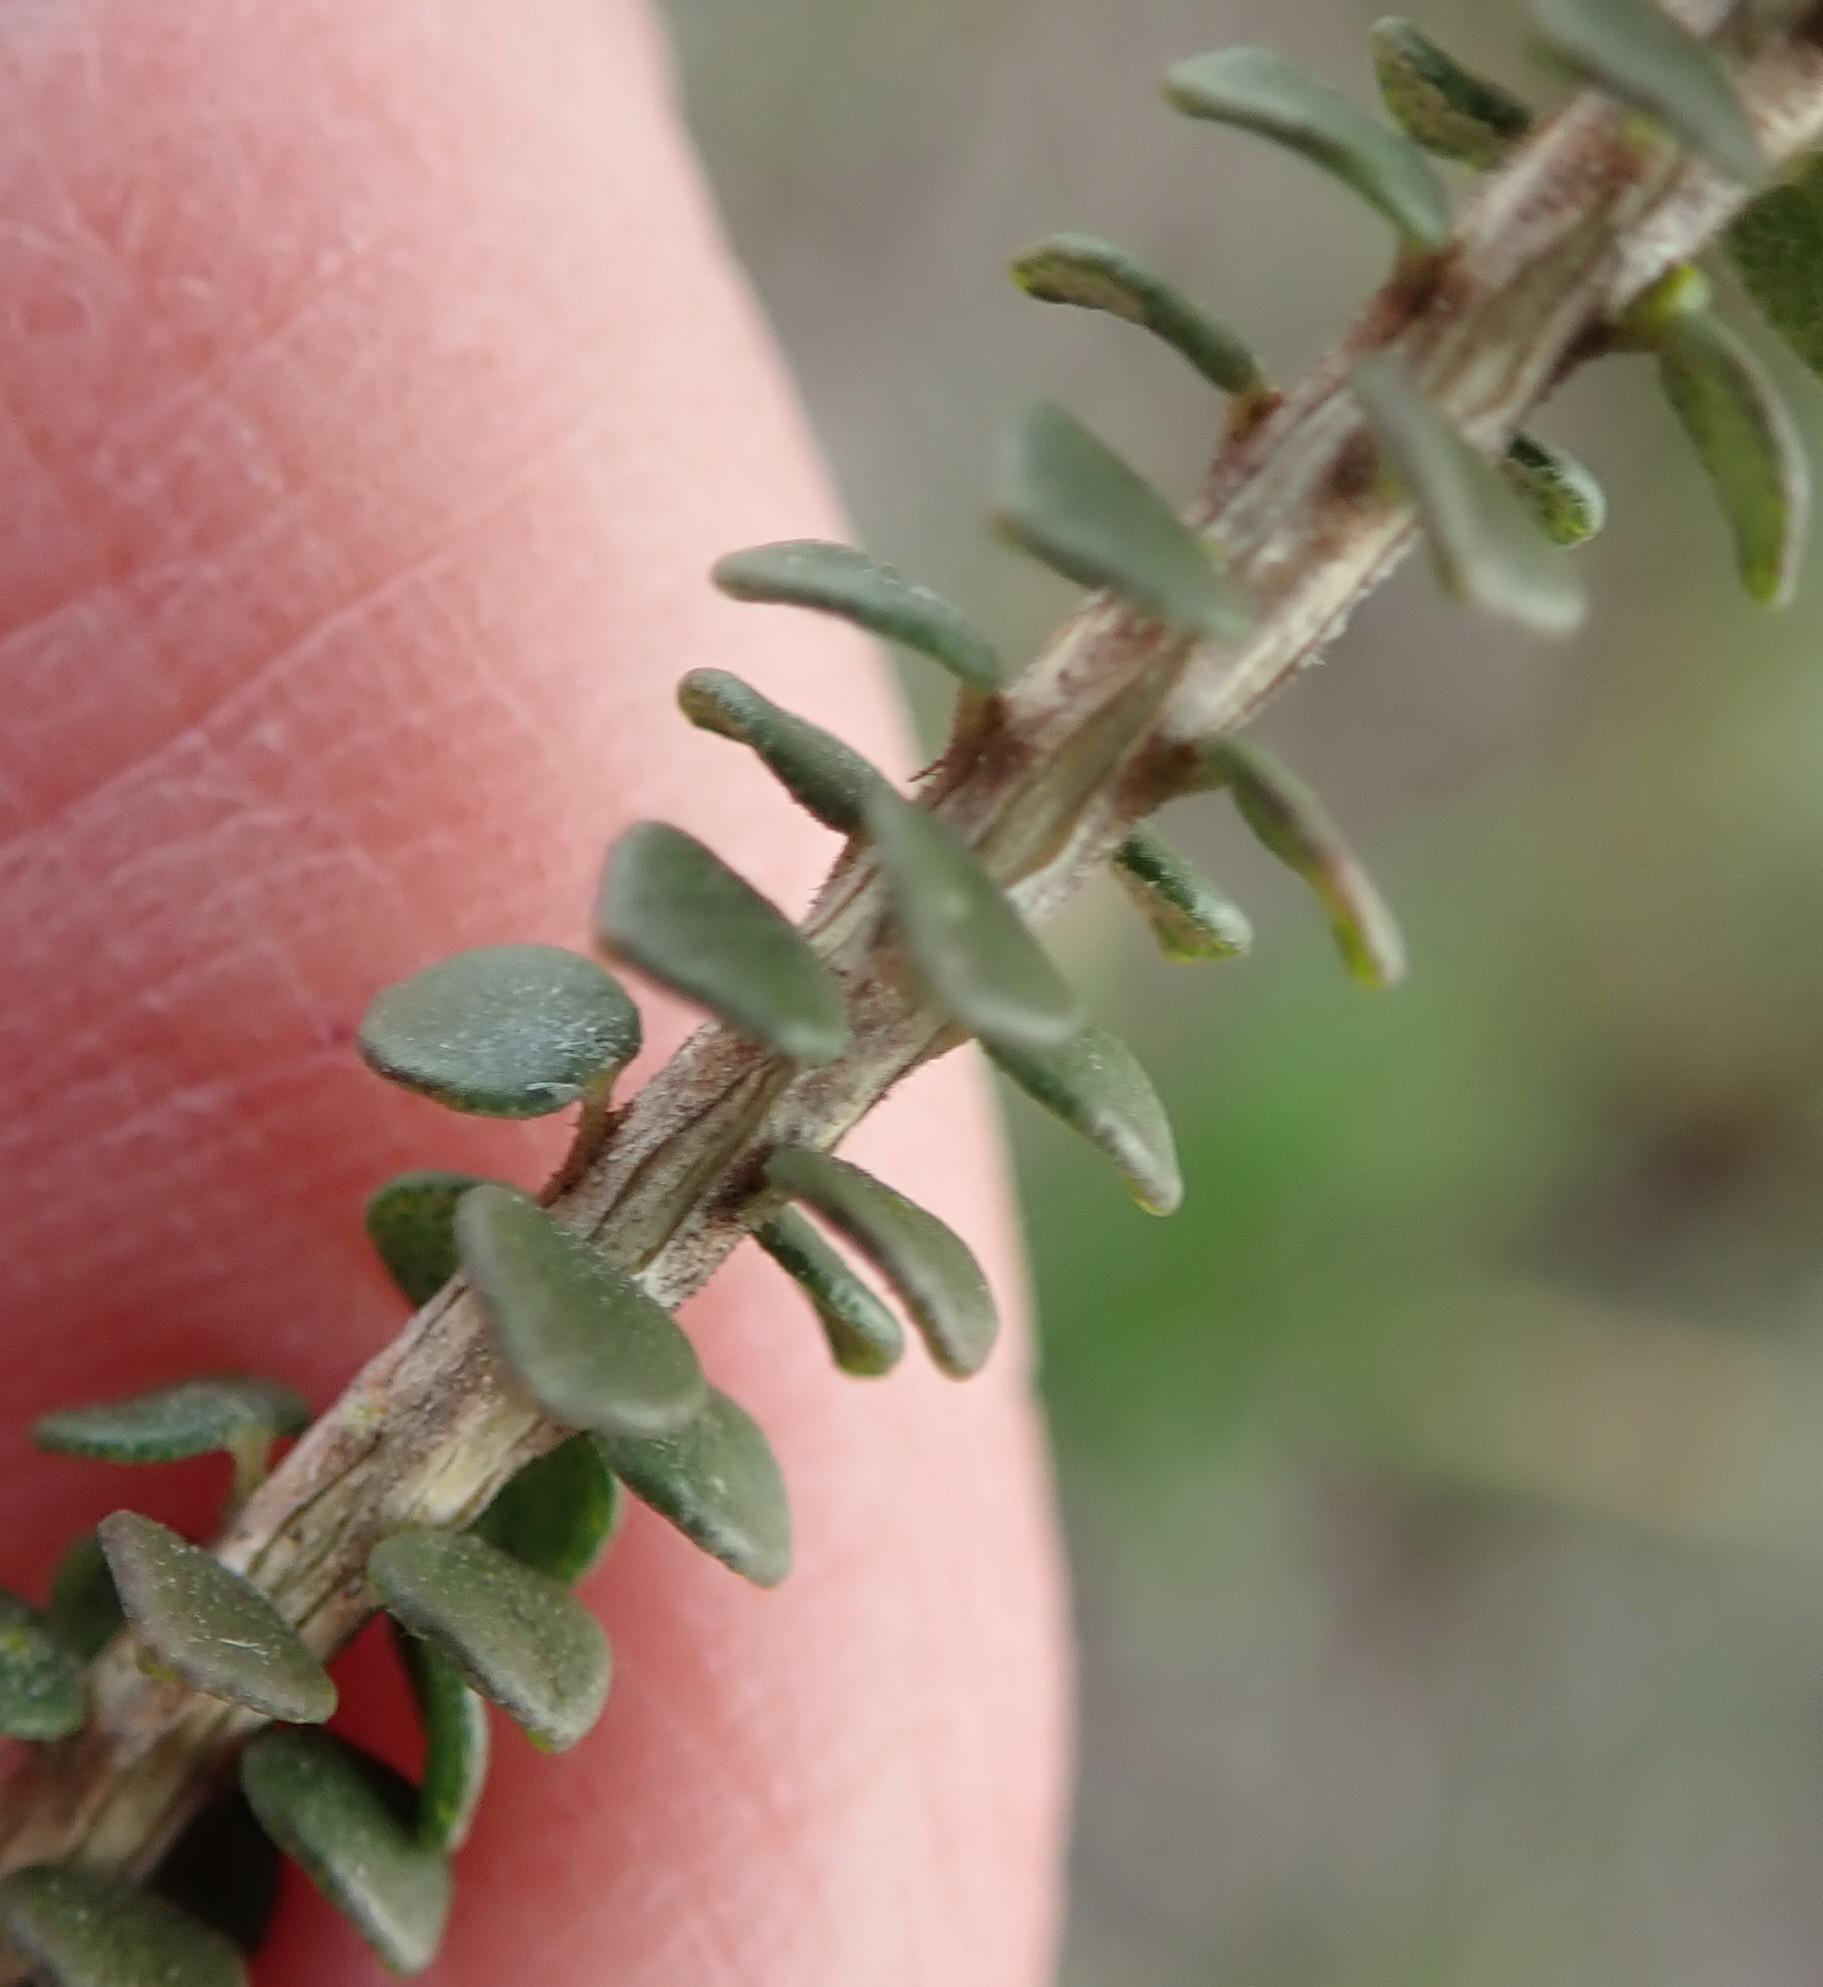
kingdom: Plantae
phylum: Tracheophyta
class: Magnoliopsida
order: Sapindales
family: Rutaceae
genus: Agathosma
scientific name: Agathosma muirii
